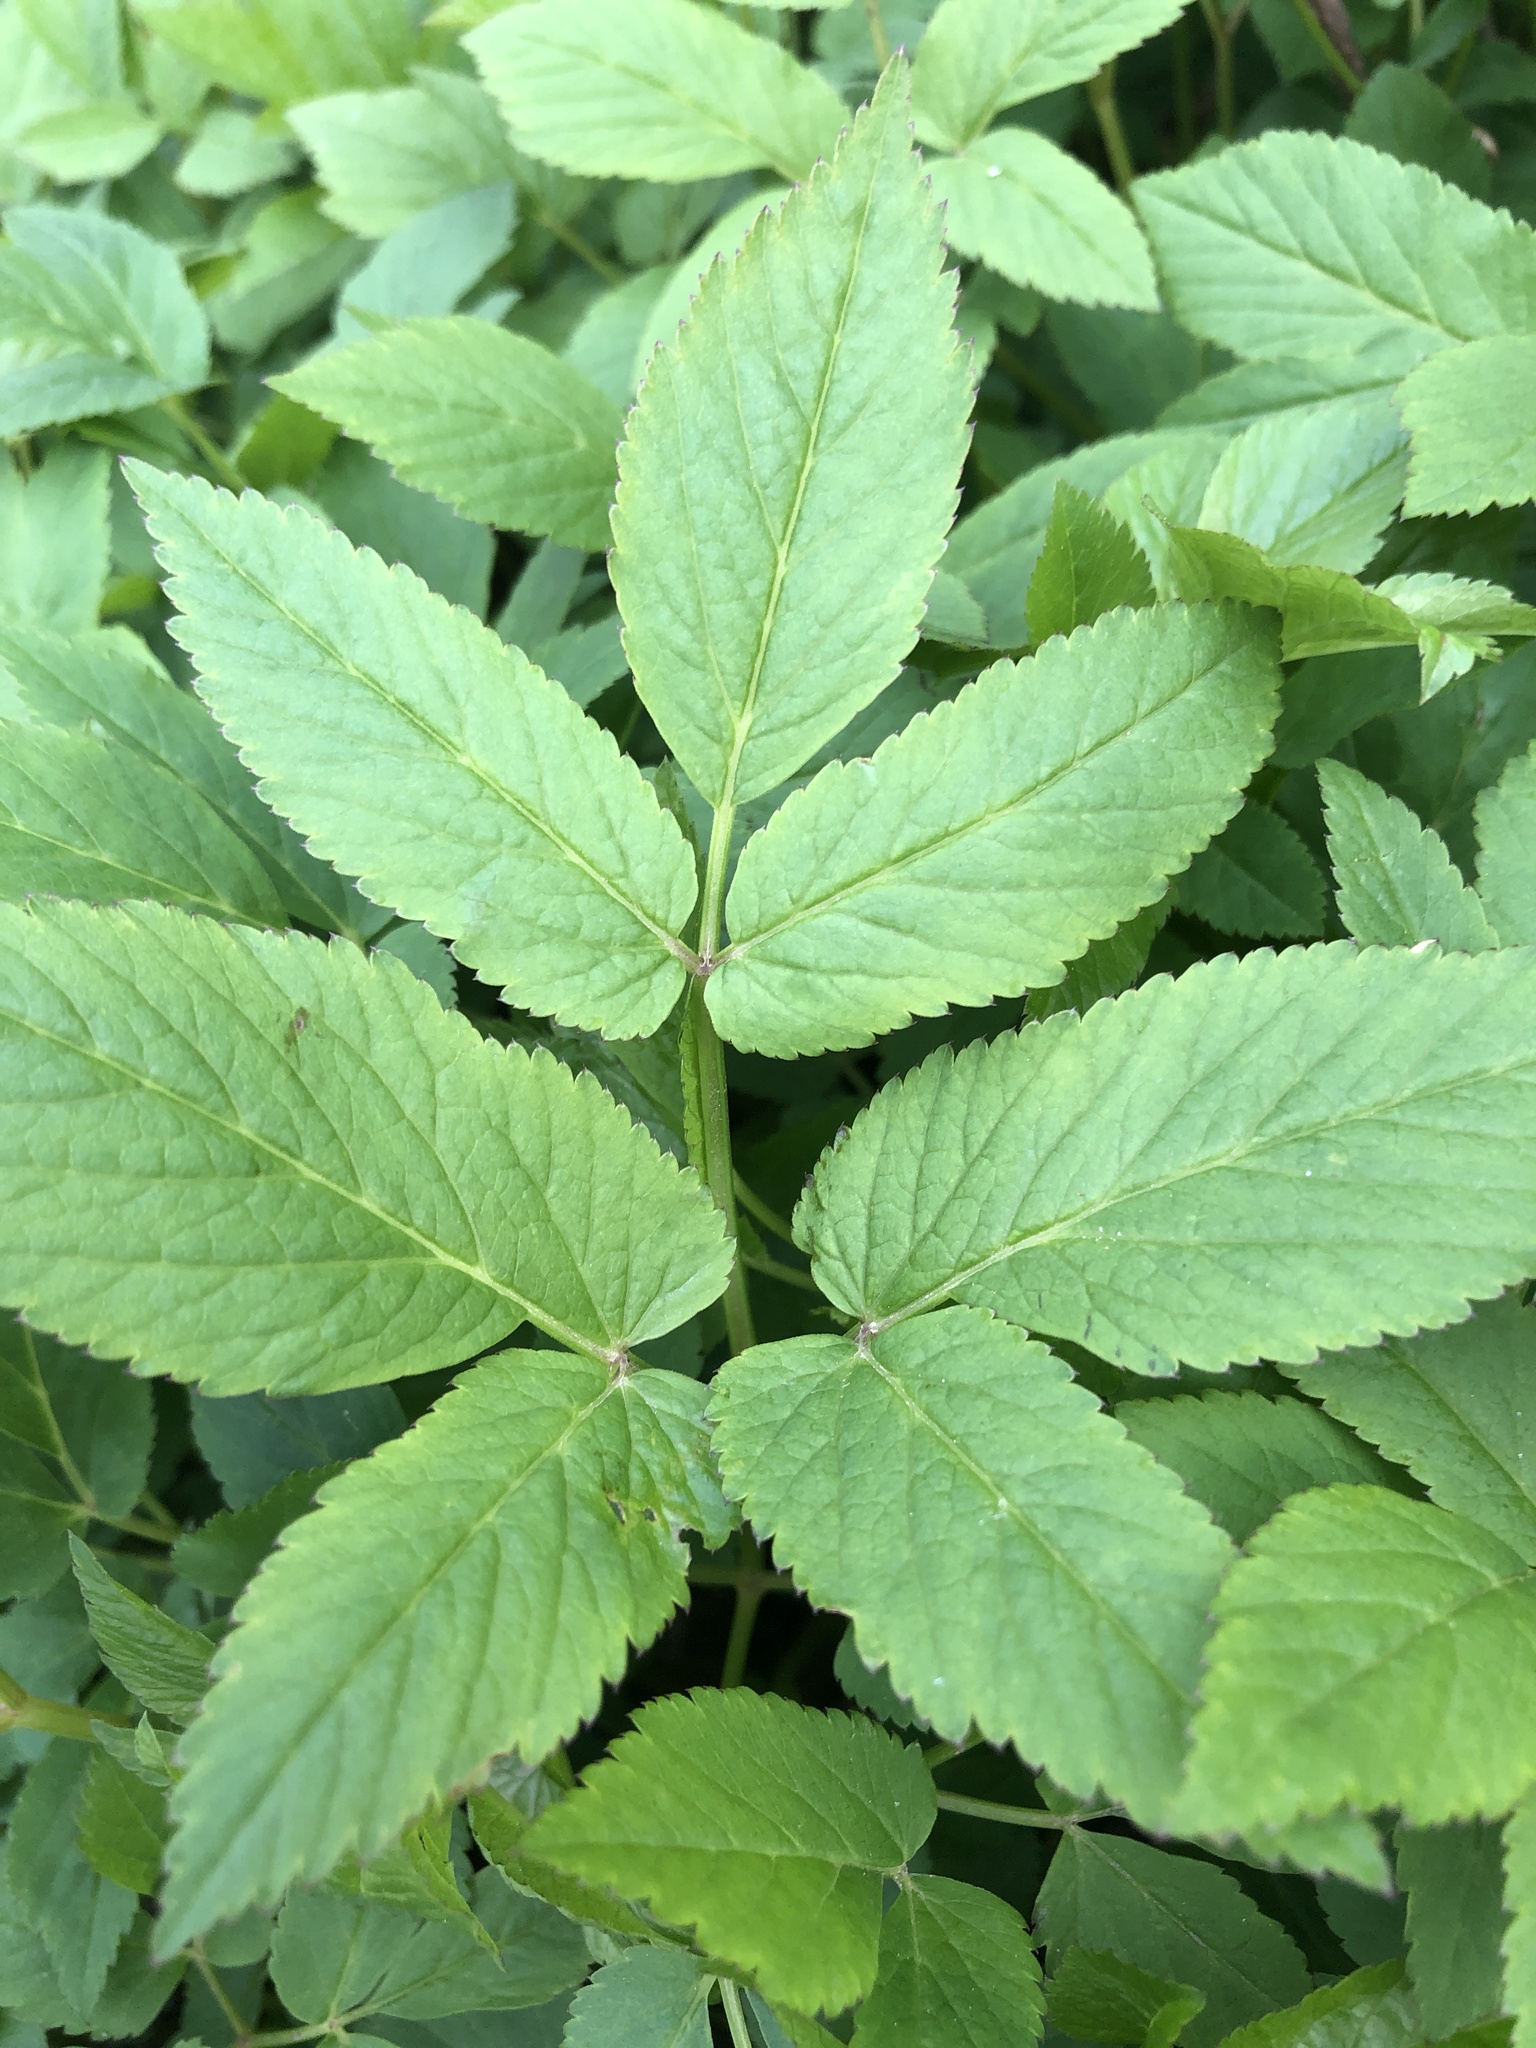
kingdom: Plantae
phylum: Tracheophyta
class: Magnoliopsida
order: Apiales
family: Apiaceae
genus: Aegopodium
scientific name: Aegopodium podagraria
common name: Ground-elder
